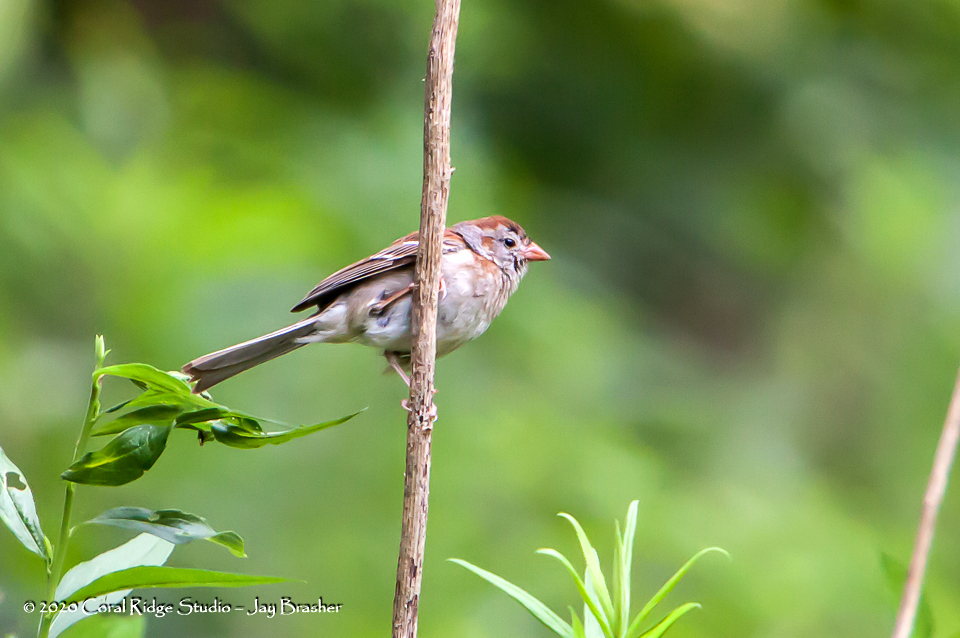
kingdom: Animalia
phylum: Chordata
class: Aves
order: Passeriformes
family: Passerellidae
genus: Spizella
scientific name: Spizella pusilla
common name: Field sparrow
